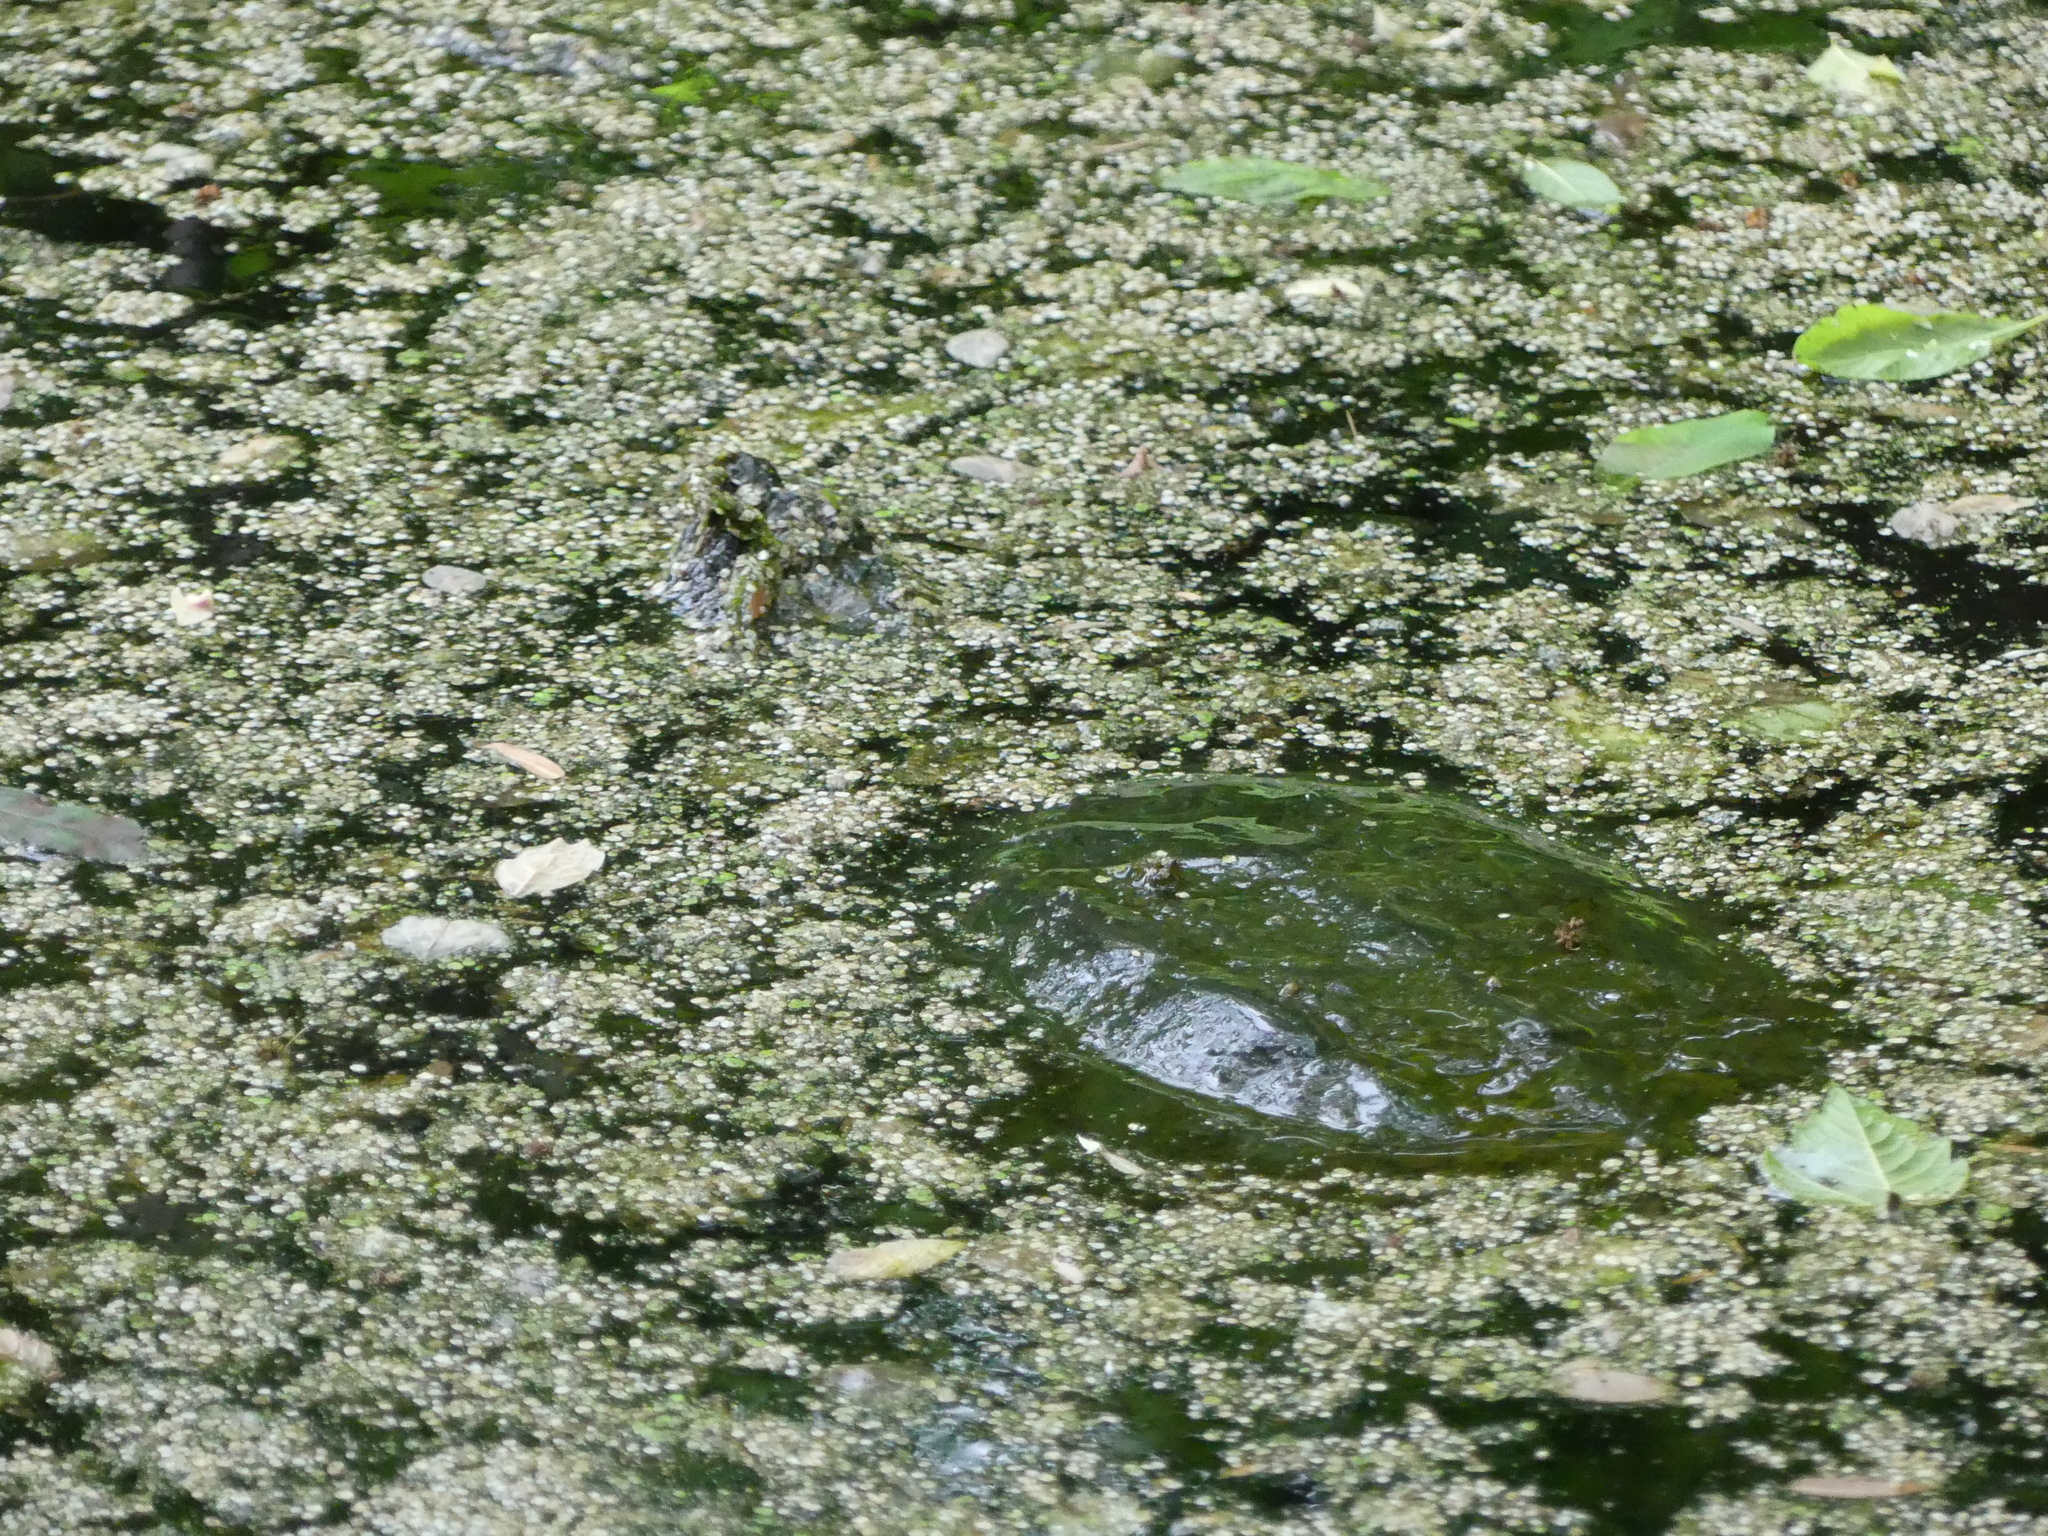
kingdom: Animalia
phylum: Chordata
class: Testudines
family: Chelydridae
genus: Chelydra
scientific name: Chelydra serpentina
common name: Common snapping turtle
